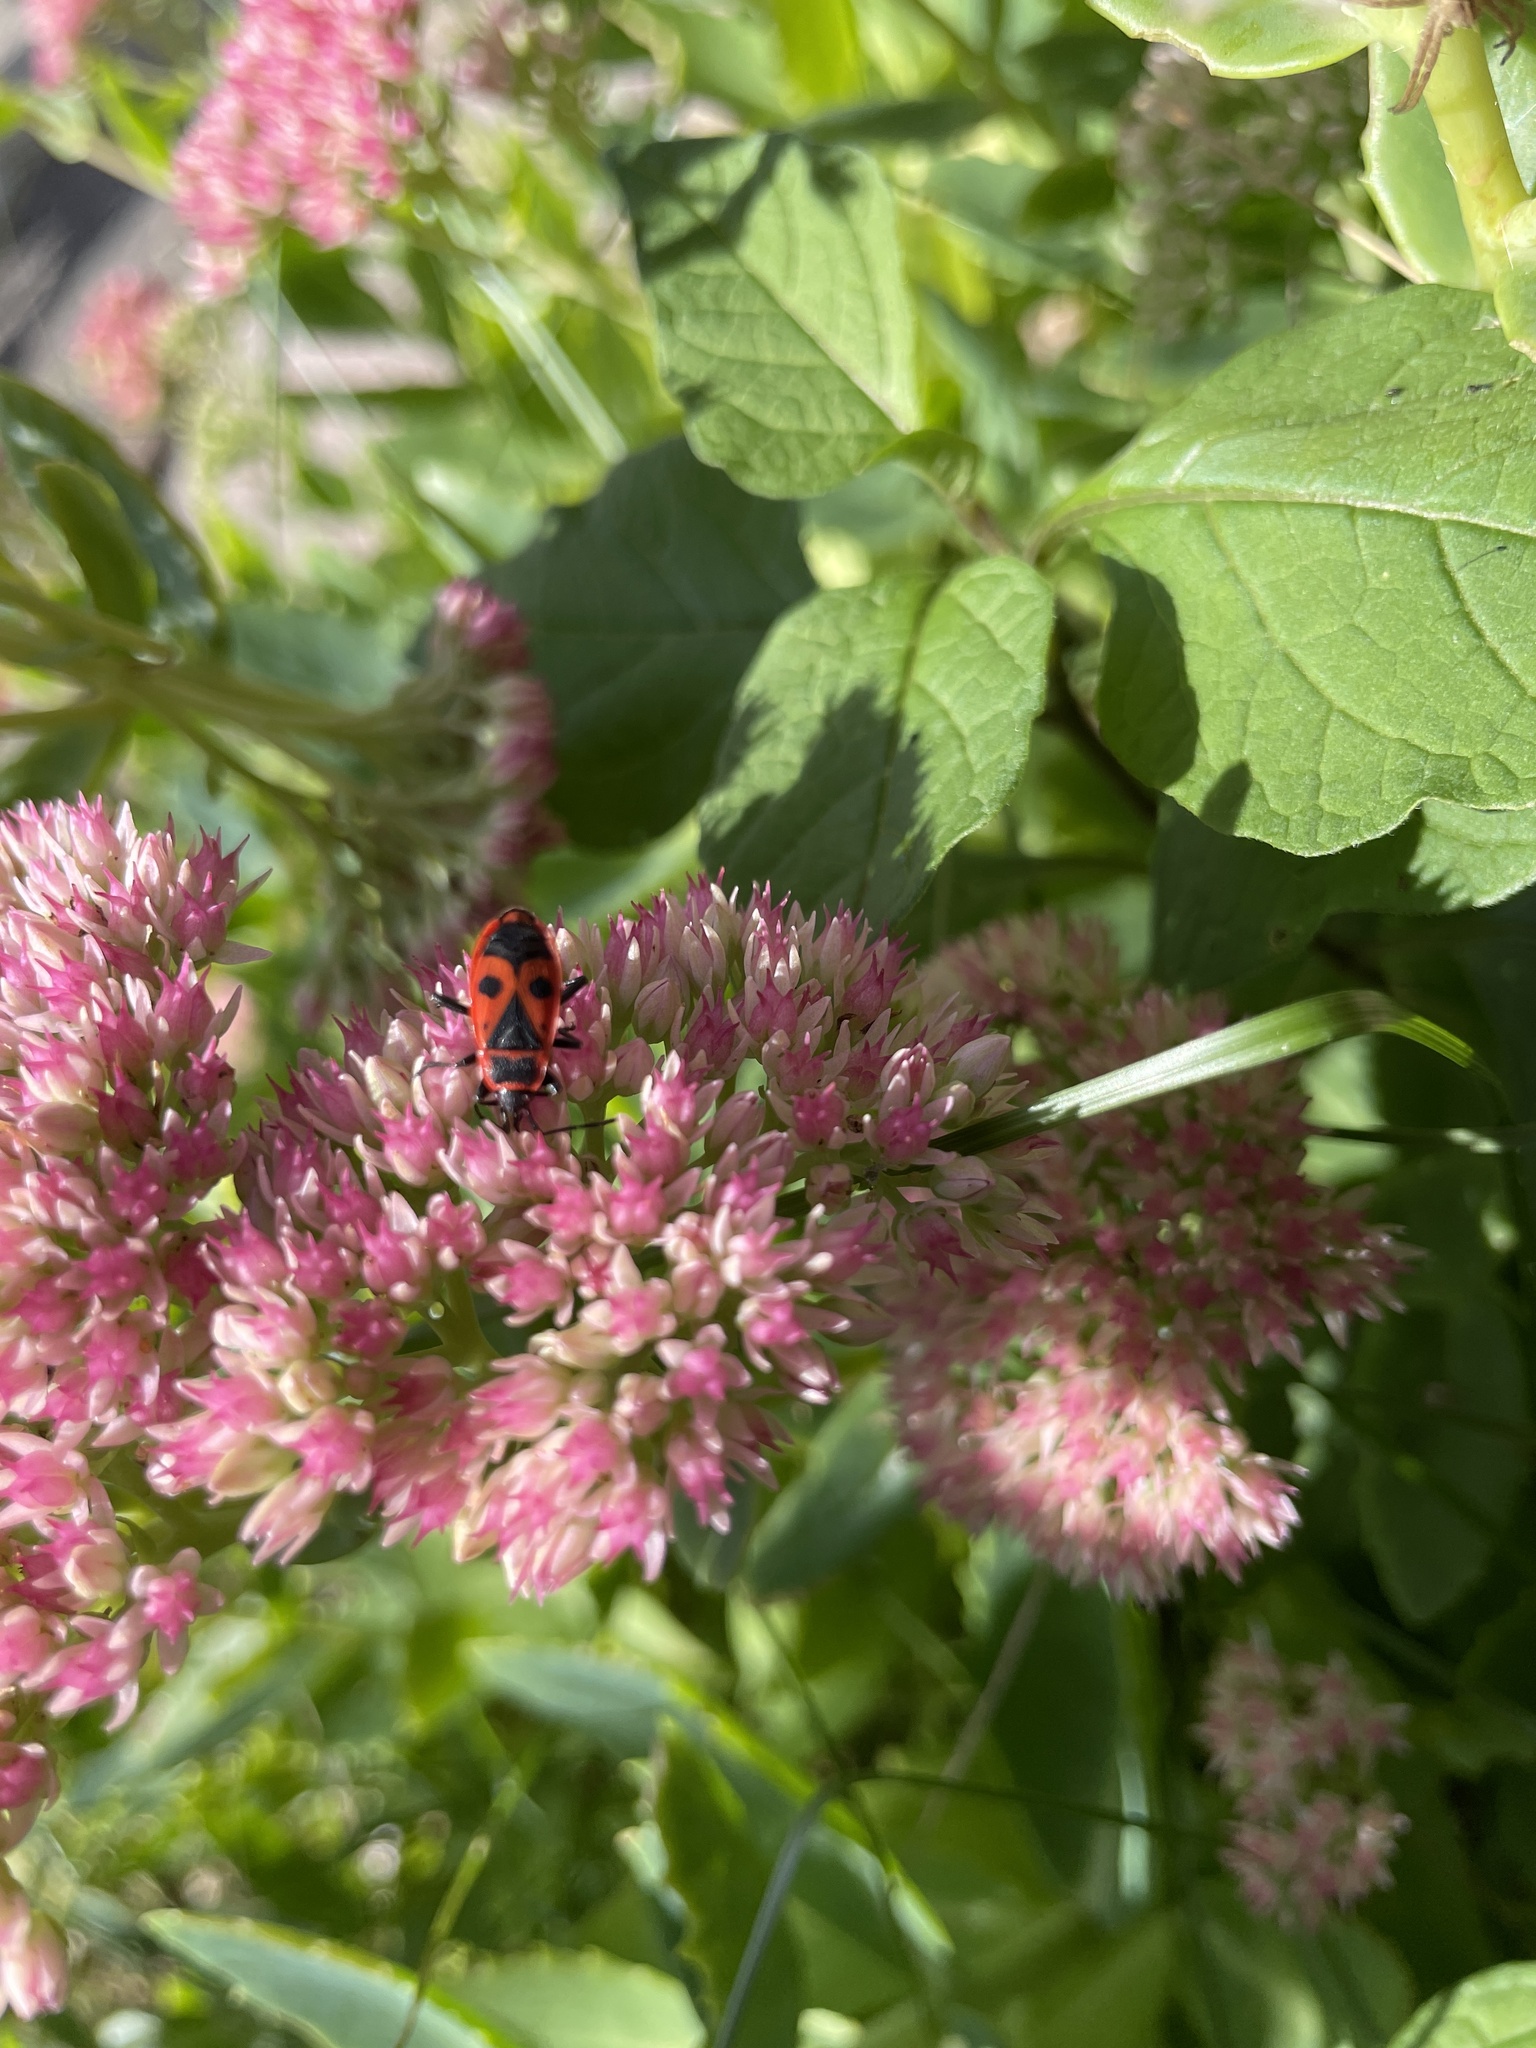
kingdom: Animalia
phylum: Arthropoda
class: Insecta
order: Hemiptera
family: Pyrrhocoridae
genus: Pyrrhocoris
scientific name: Pyrrhocoris apterus
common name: Firebug
